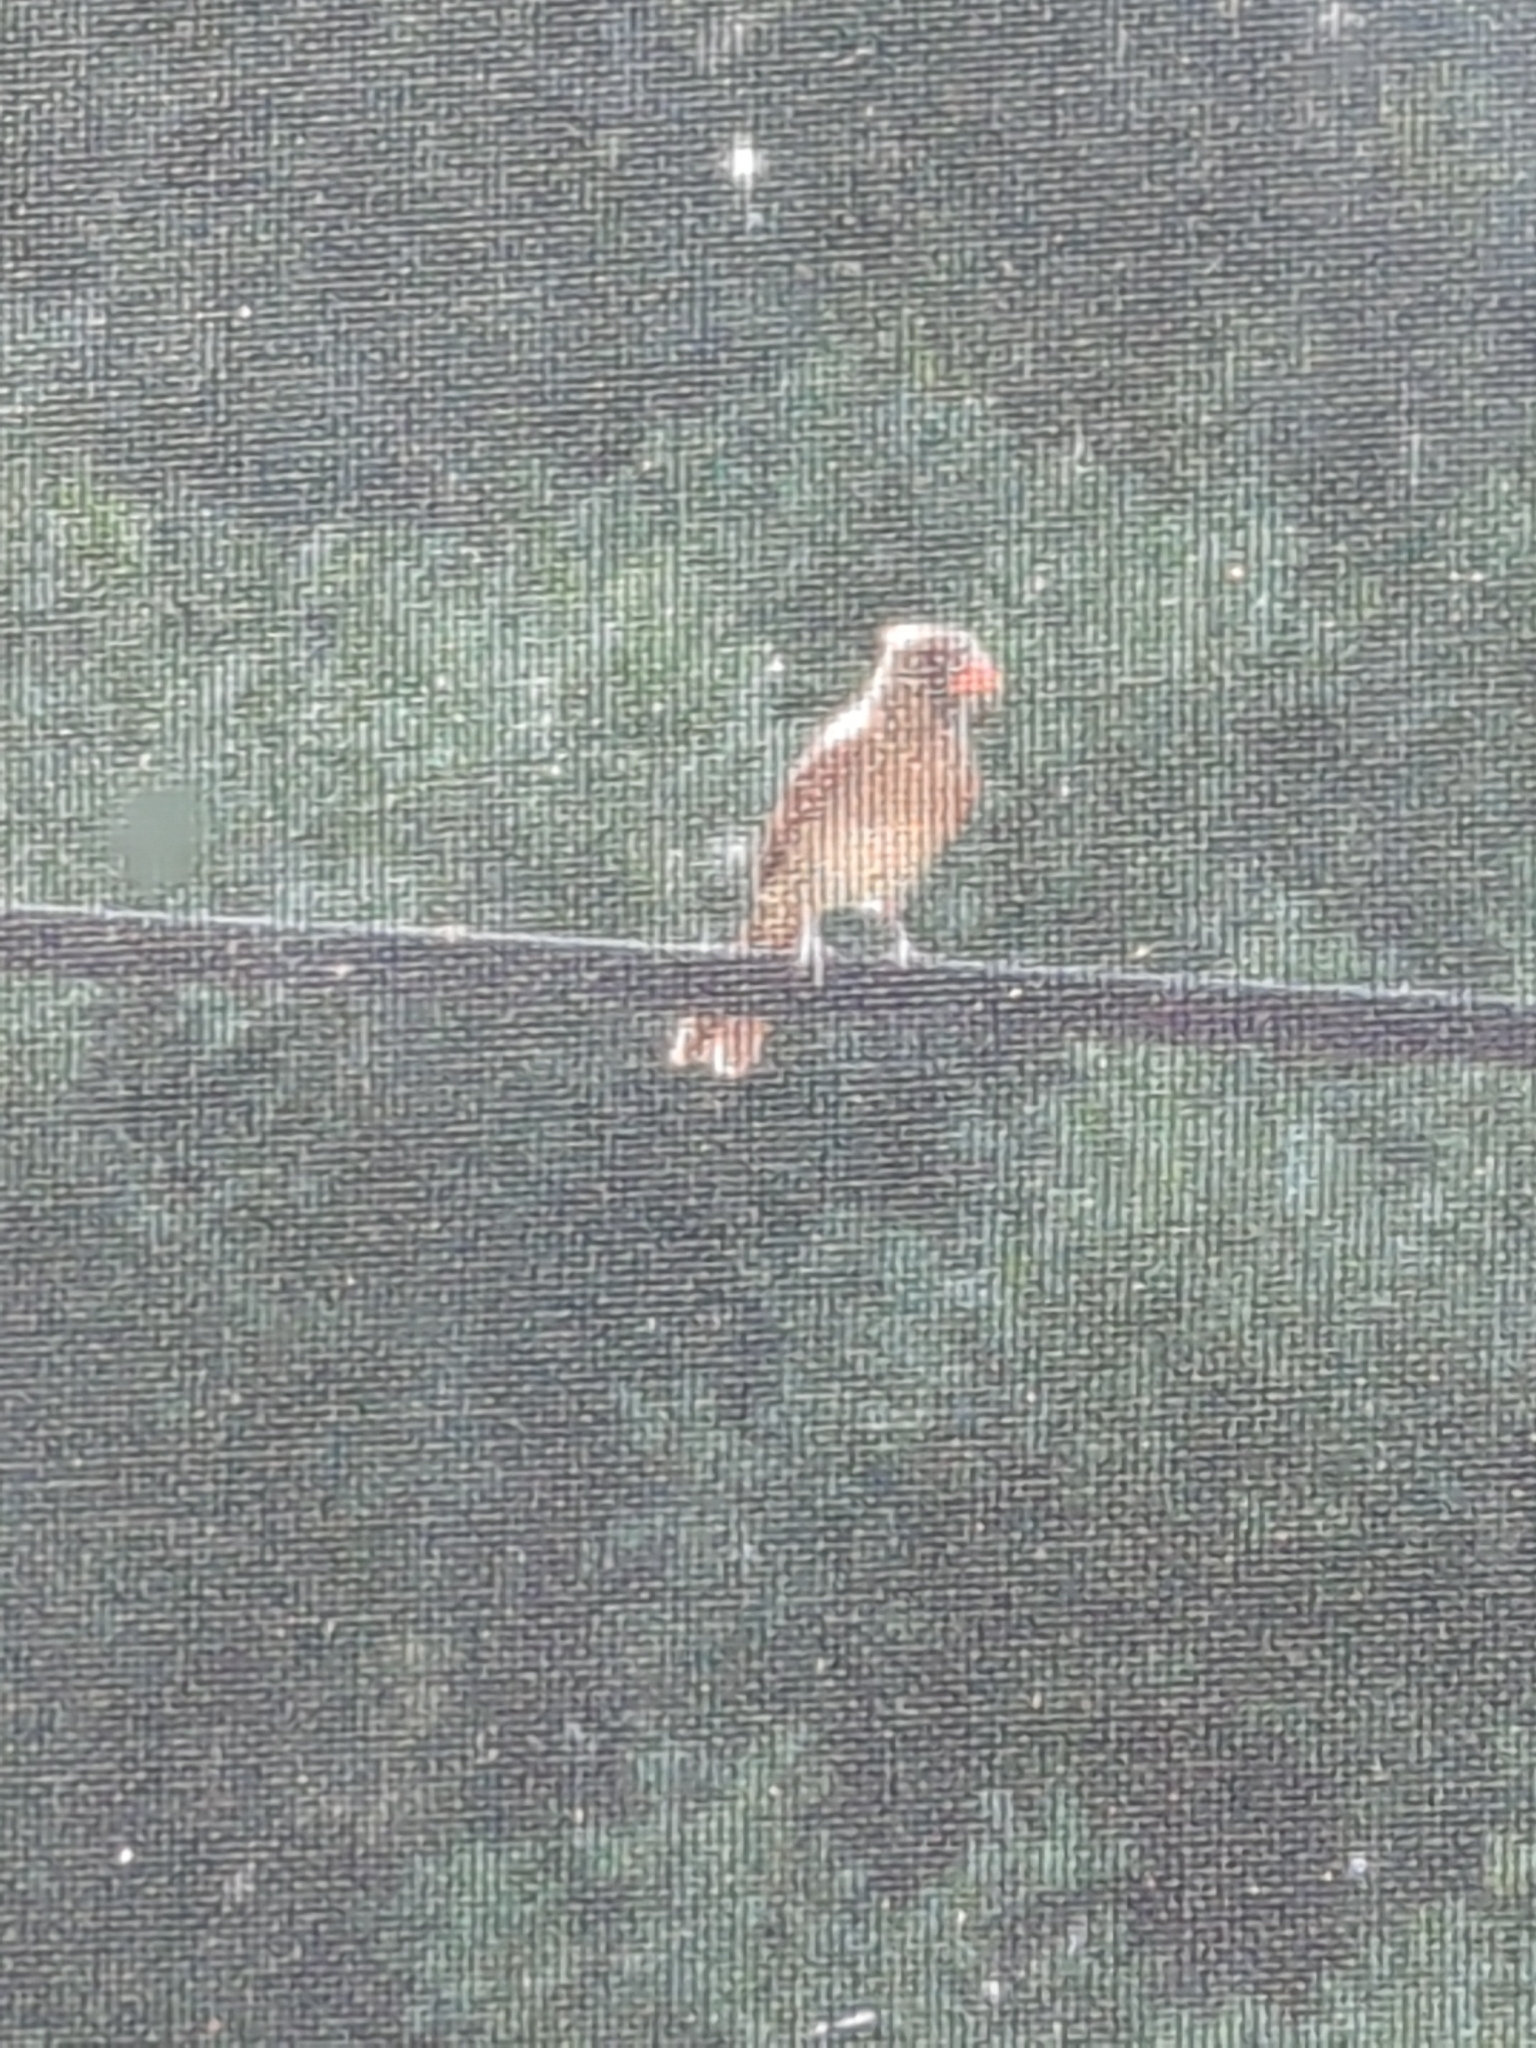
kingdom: Animalia
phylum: Chordata
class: Aves
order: Passeriformes
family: Cardinalidae
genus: Cardinalis
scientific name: Cardinalis cardinalis
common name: Northern cardinal
